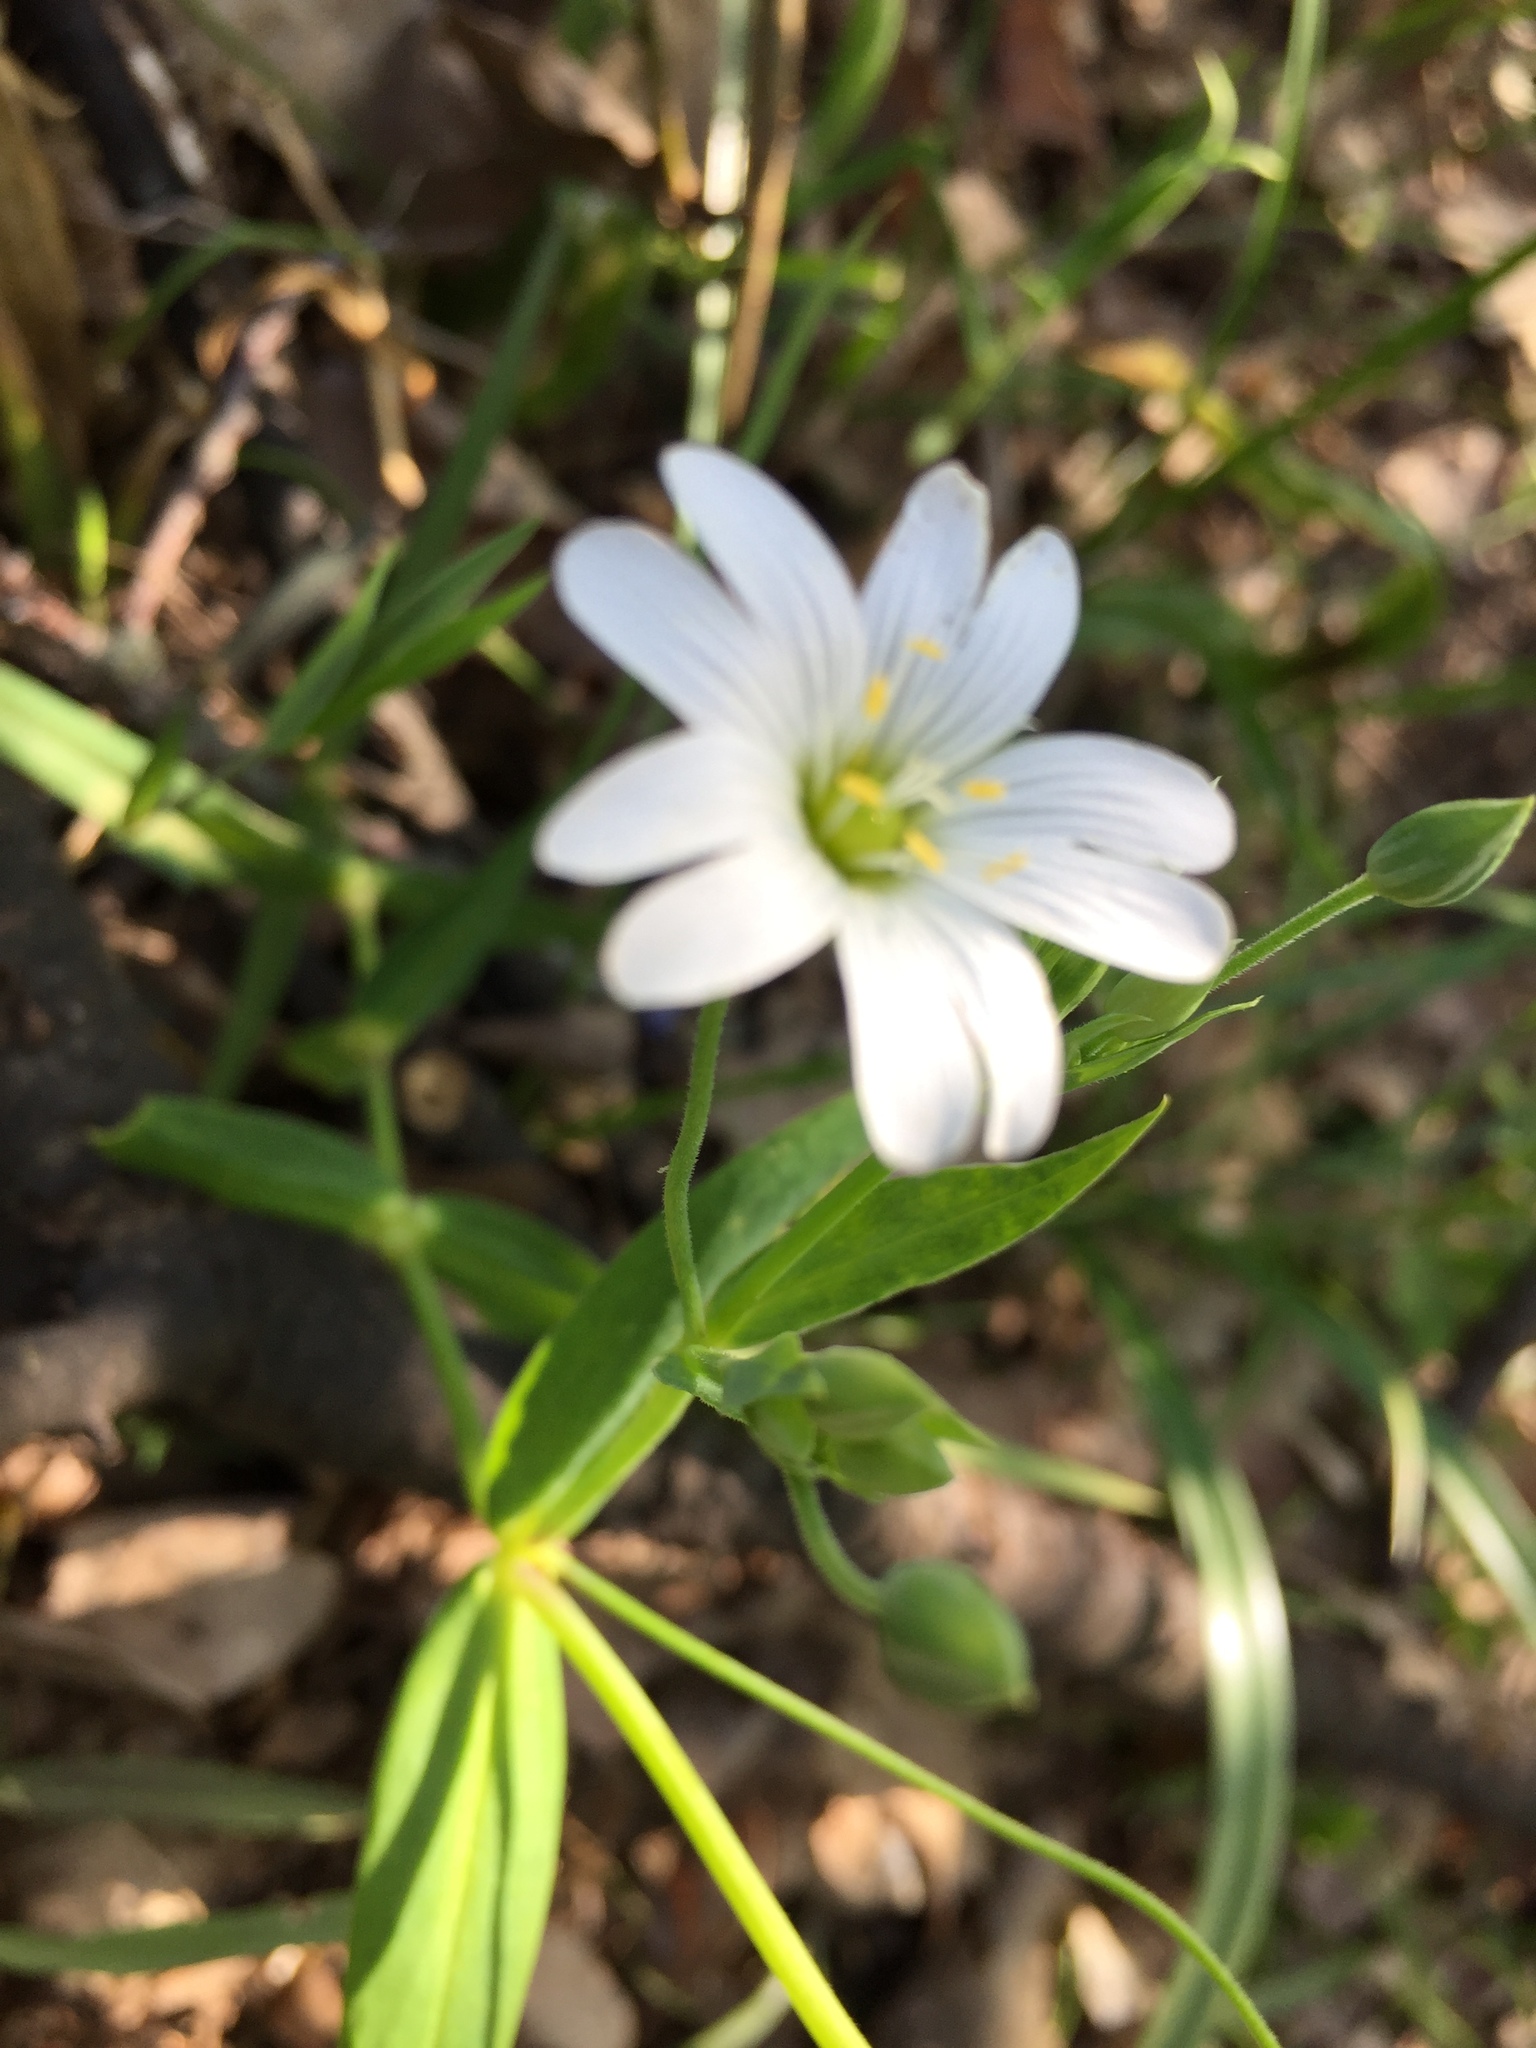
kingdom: Plantae
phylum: Tracheophyta
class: Magnoliopsida
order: Caryophyllales
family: Caryophyllaceae
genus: Rabelera
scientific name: Rabelera holostea
